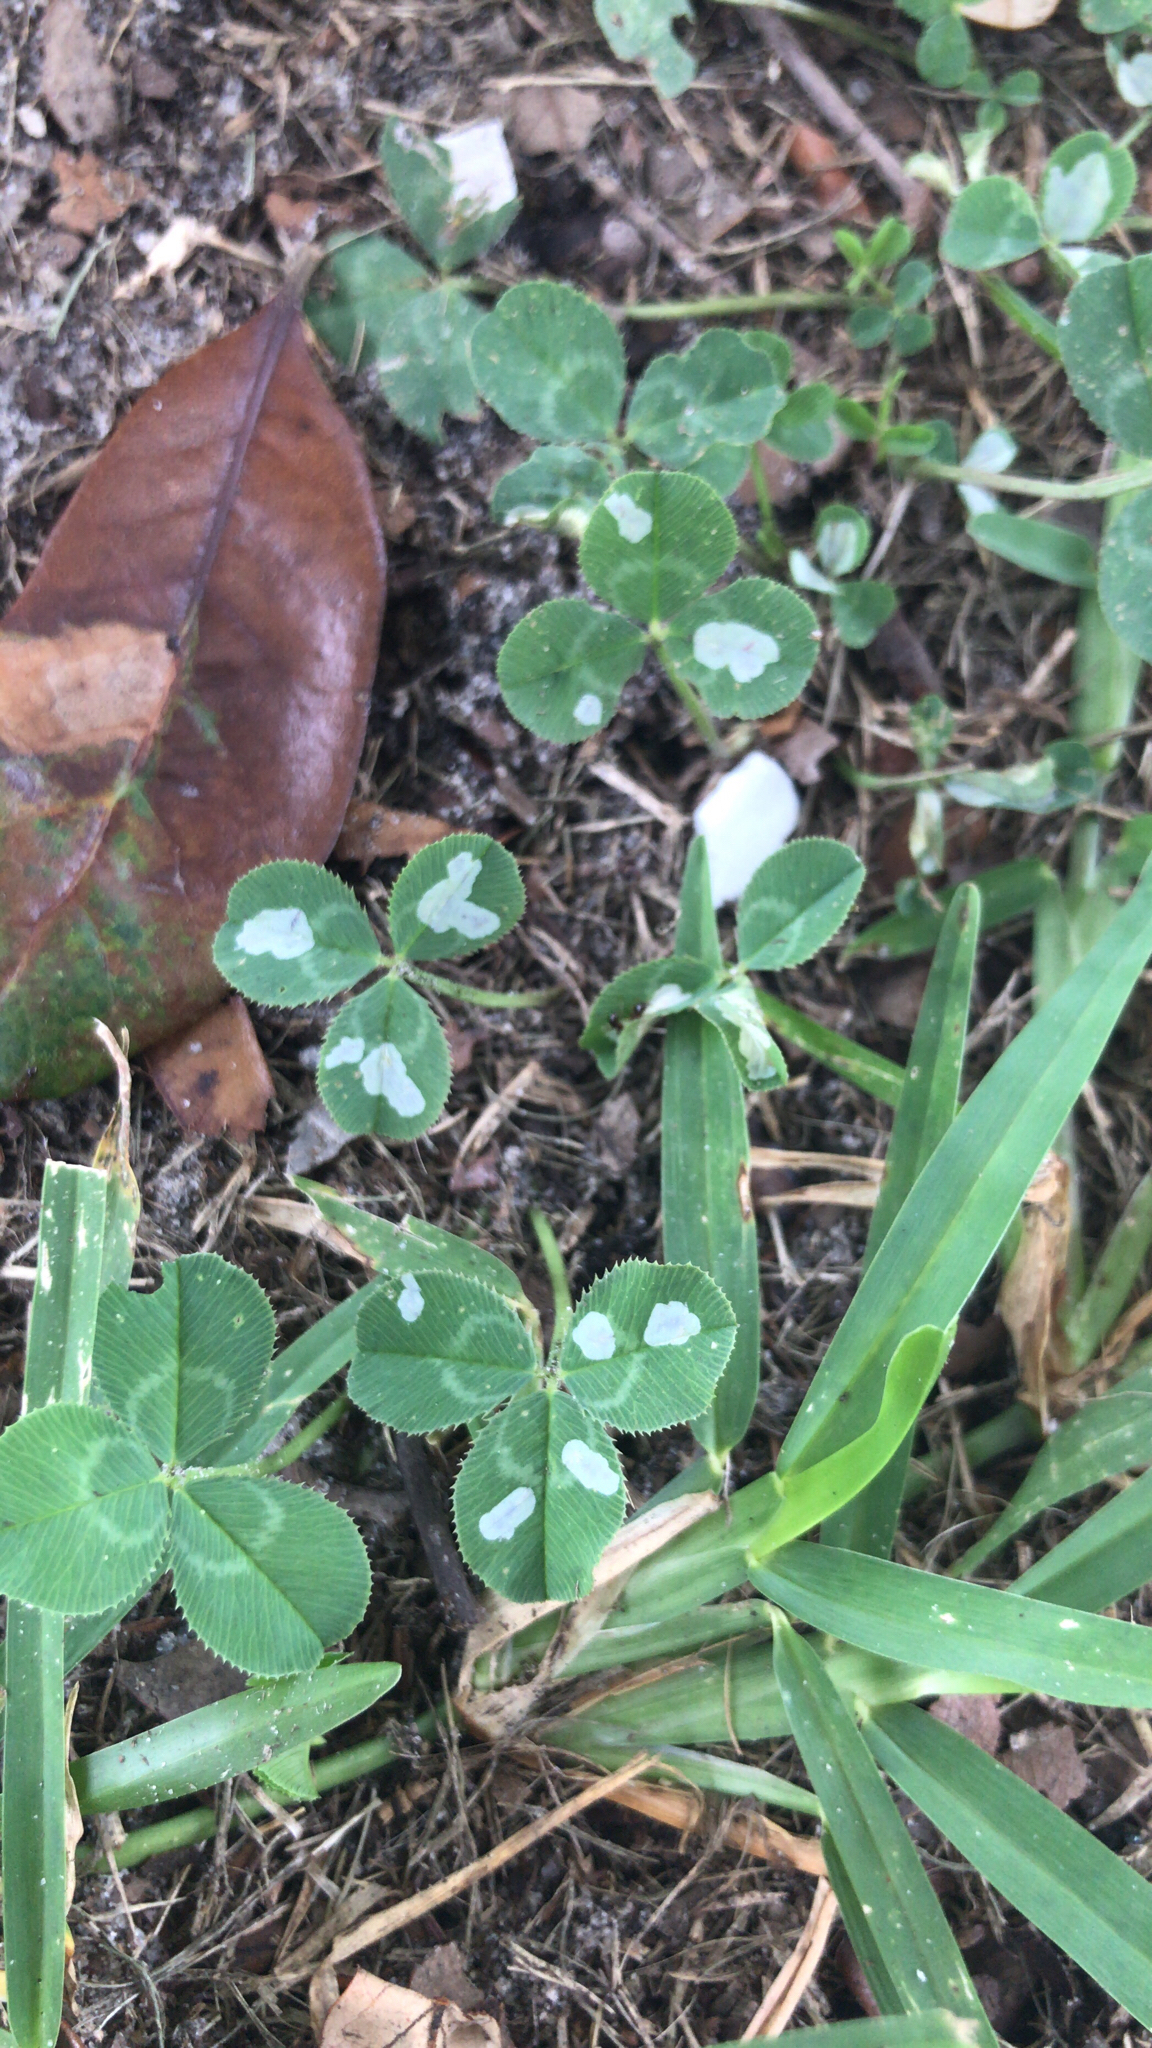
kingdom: Plantae
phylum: Tracheophyta
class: Magnoliopsida
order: Fabales
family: Fabaceae
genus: Trifolium
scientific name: Trifolium repens
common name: White clover
